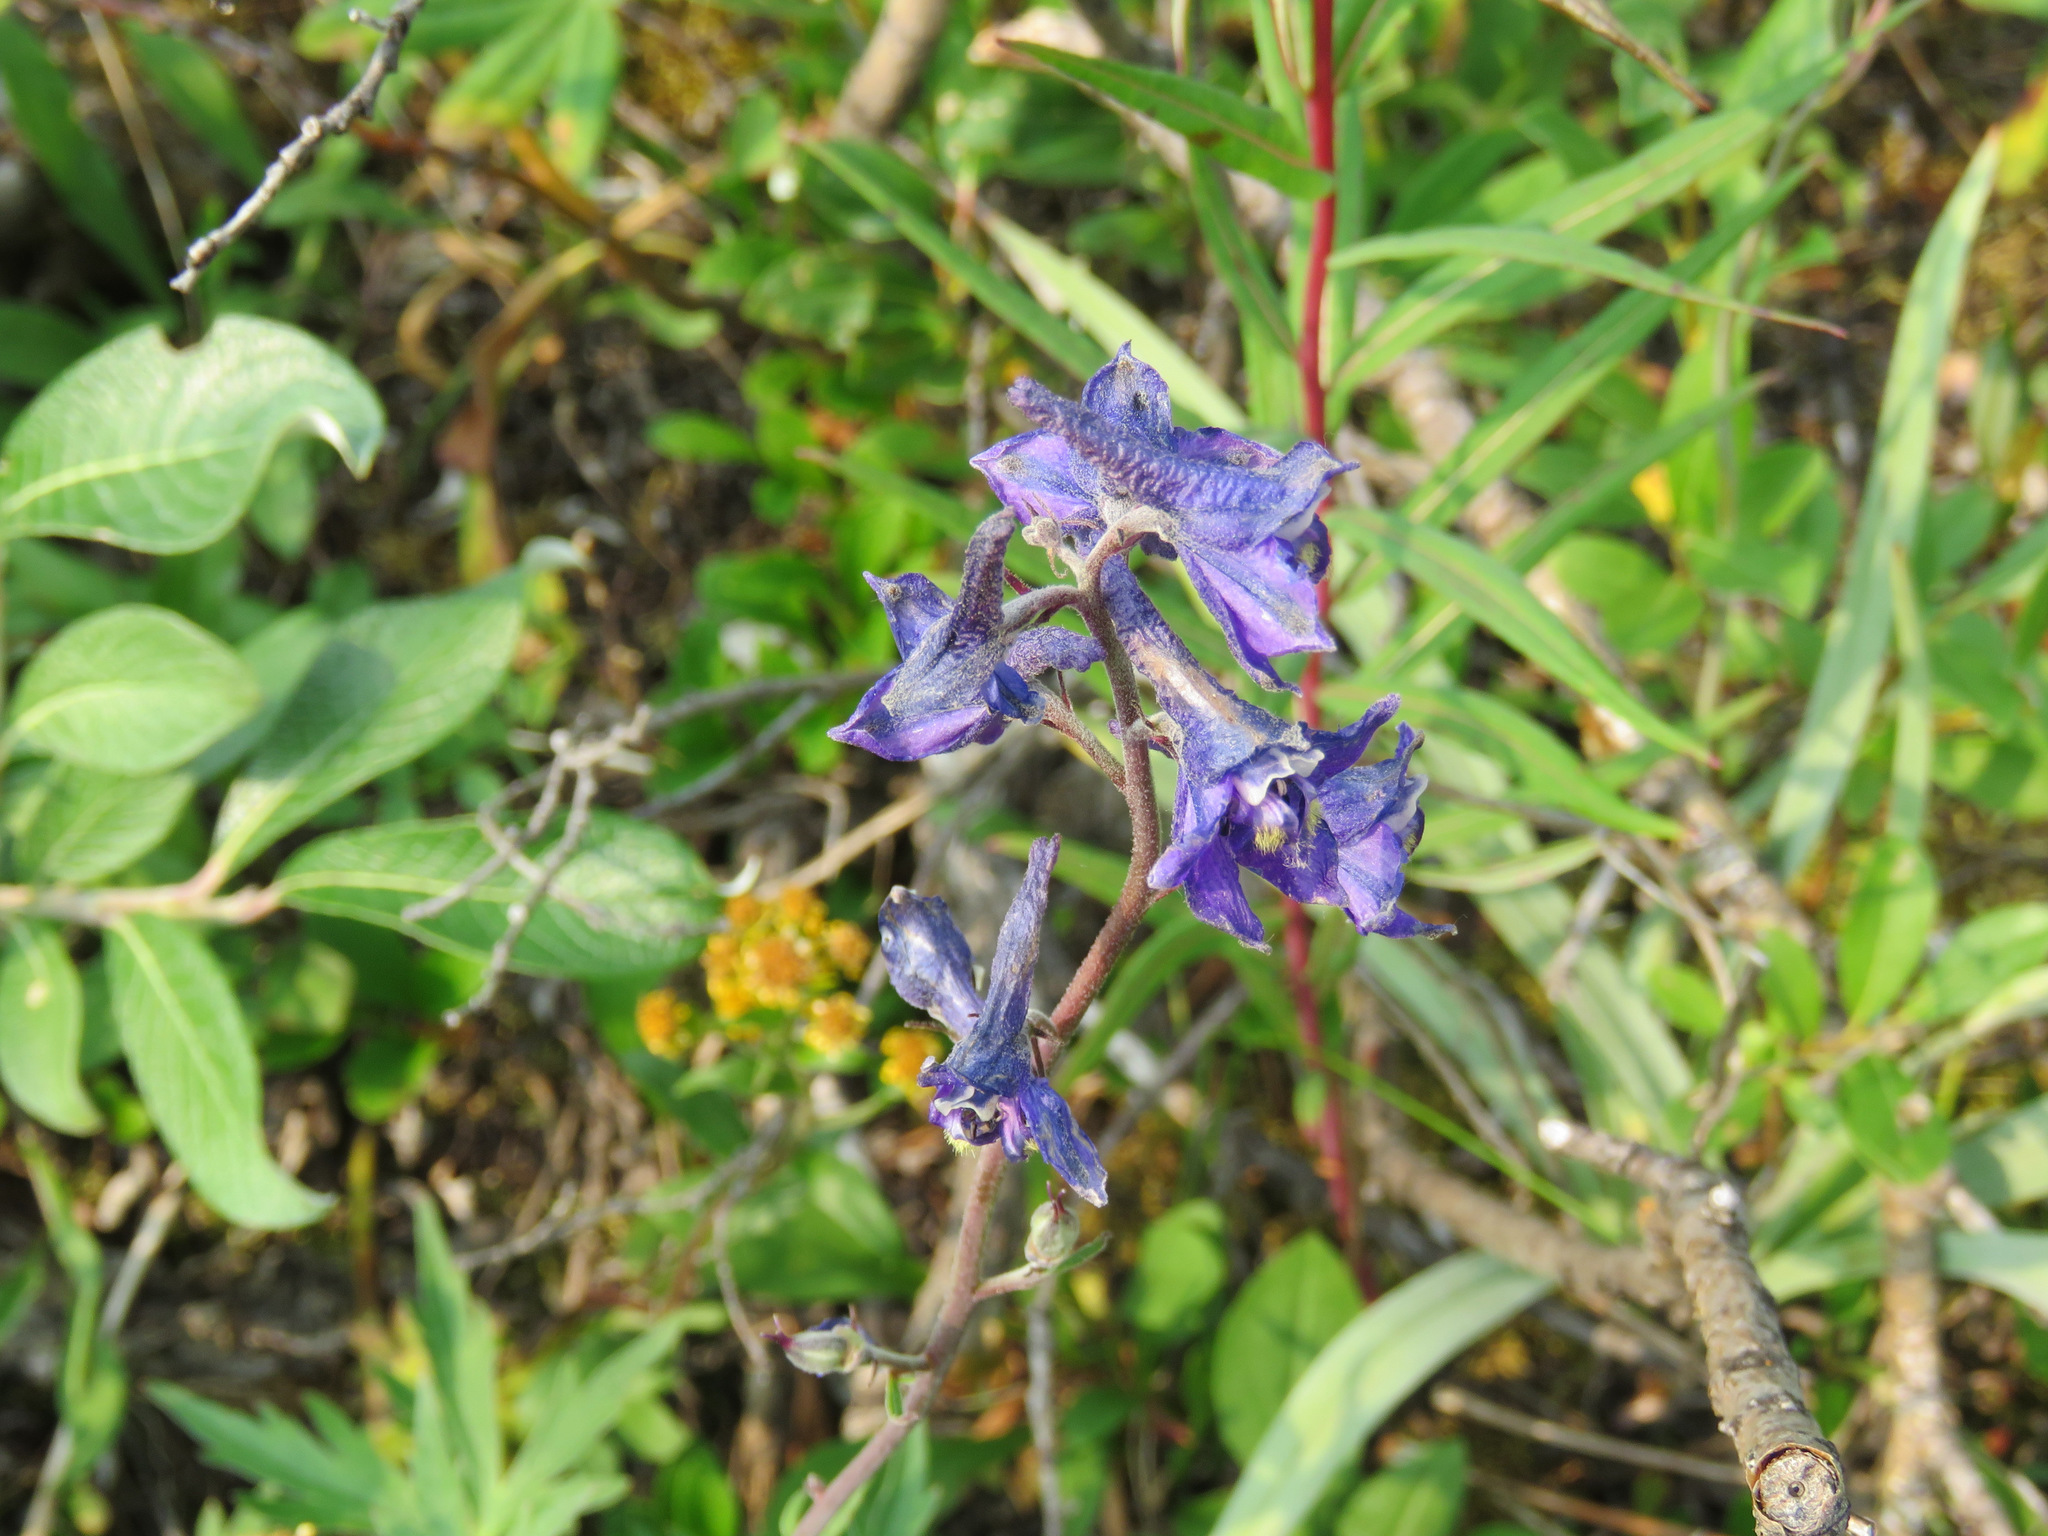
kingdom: Plantae
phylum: Tracheophyta
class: Magnoliopsida
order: Ranunculales
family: Ranunculaceae
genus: Delphinium
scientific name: Delphinium glaucum
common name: Brown's larkspur
